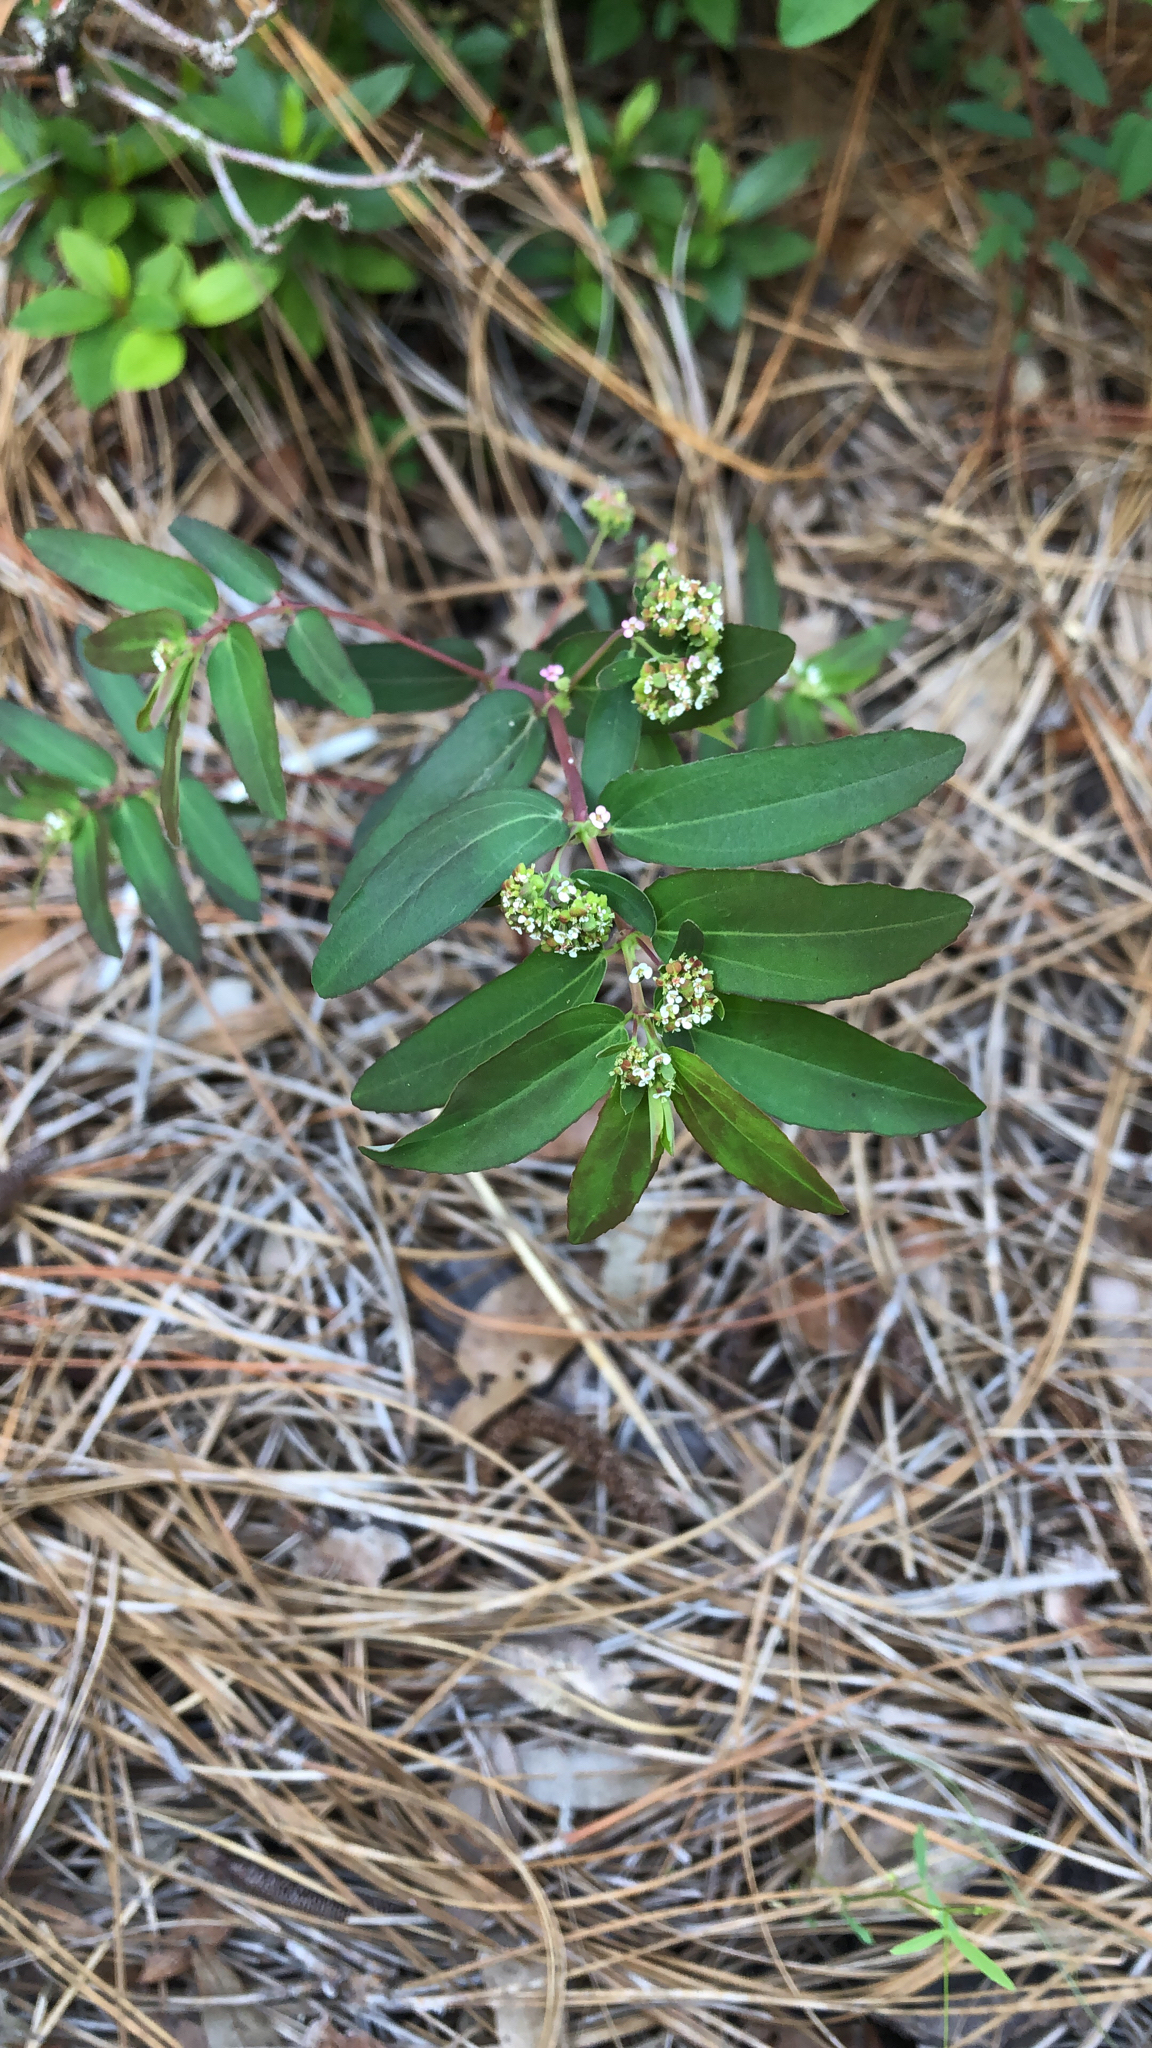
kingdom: Plantae
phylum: Tracheophyta
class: Magnoliopsida
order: Malpighiales
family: Euphorbiaceae
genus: Euphorbia
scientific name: Euphorbia hypericifolia
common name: Graceful sandmat
